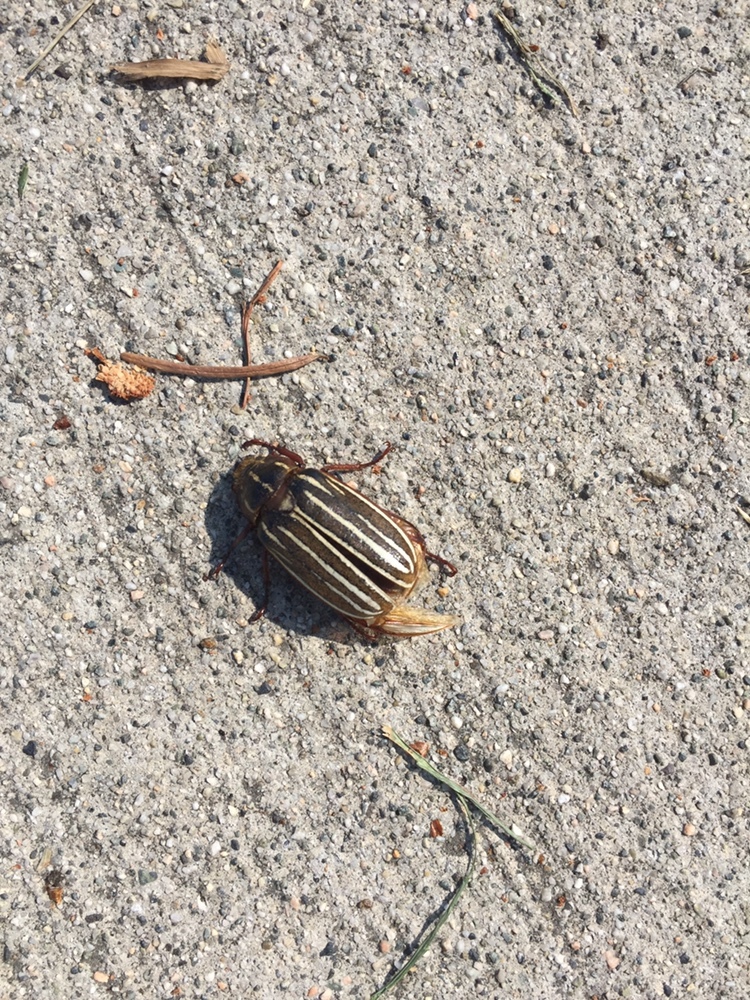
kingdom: Animalia
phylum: Arthropoda
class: Insecta
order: Coleoptera
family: Scarabaeidae
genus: Polyphylla
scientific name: Polyphylla crinita
